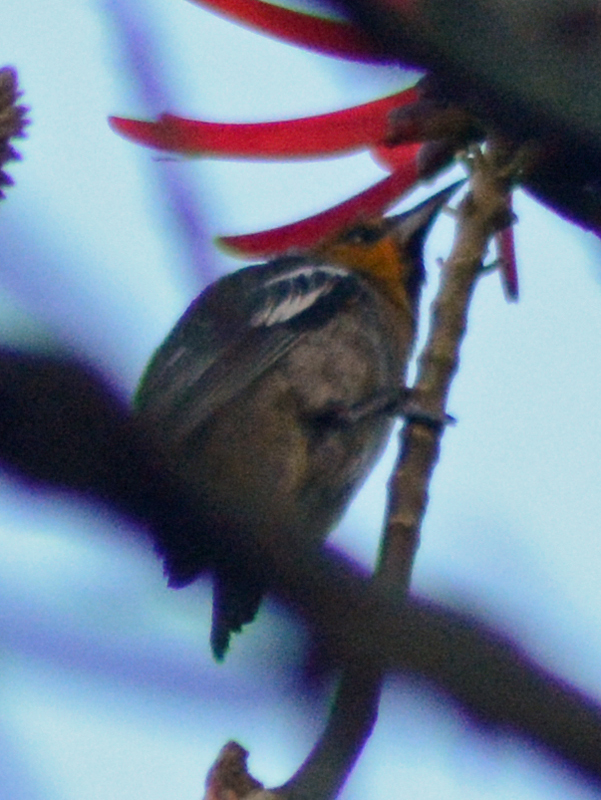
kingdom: Animalia
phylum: Chordata
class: Aves
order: Passeriformes
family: Icteridae
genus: Icterus
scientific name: Icterus abeillei
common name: Black-backed oriole
